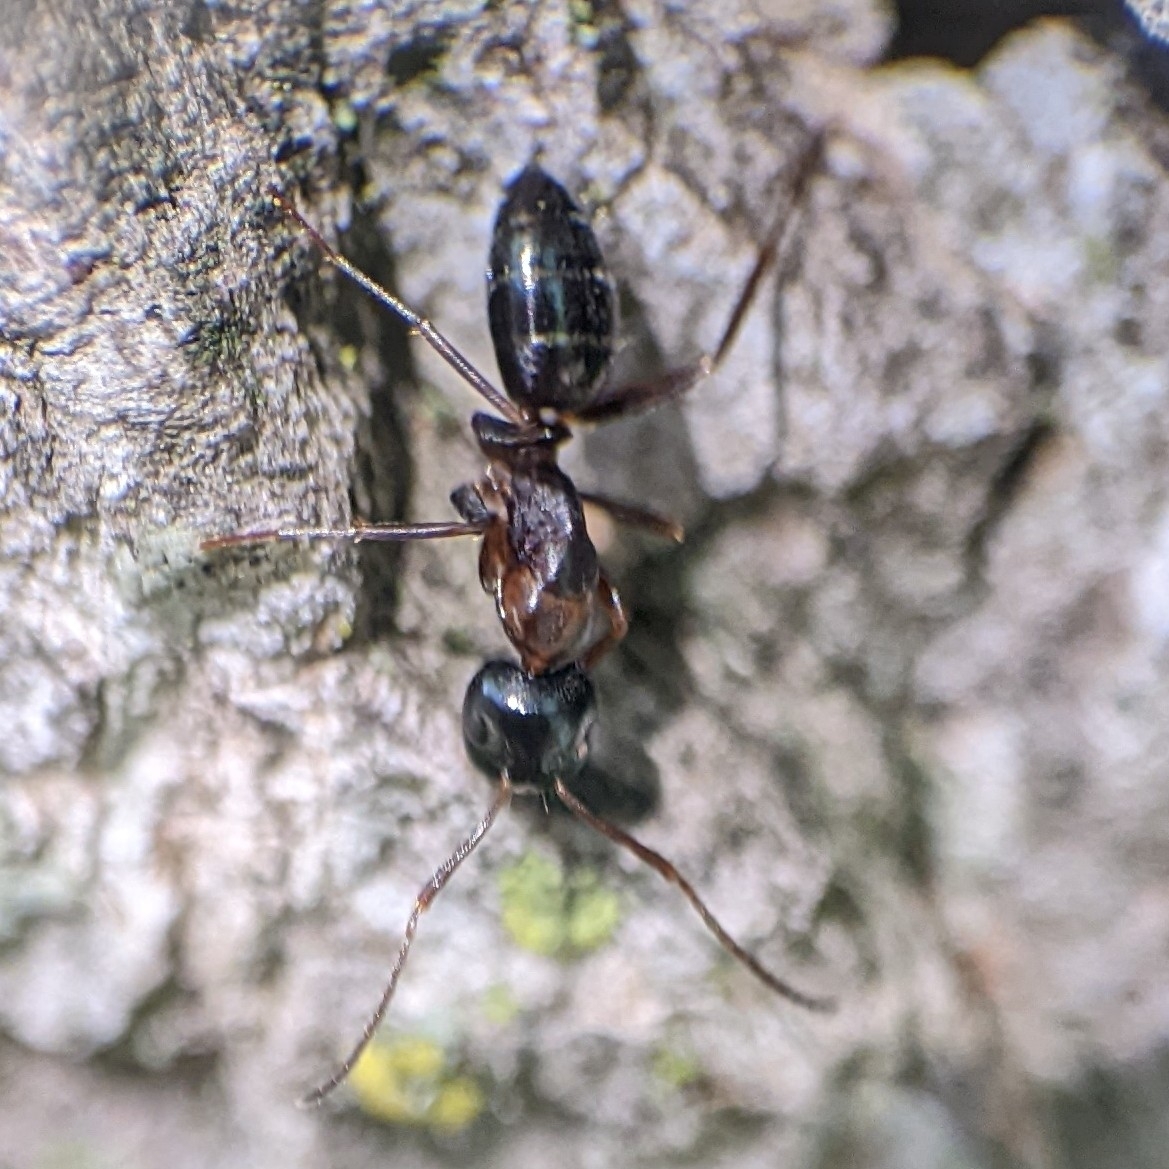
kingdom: Animalia
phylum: Arthropoda
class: Insecta
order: Hymenoptera
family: Formicidae
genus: Camponotus
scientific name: Camponotus nearcticus
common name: Smaller carpenter ant
